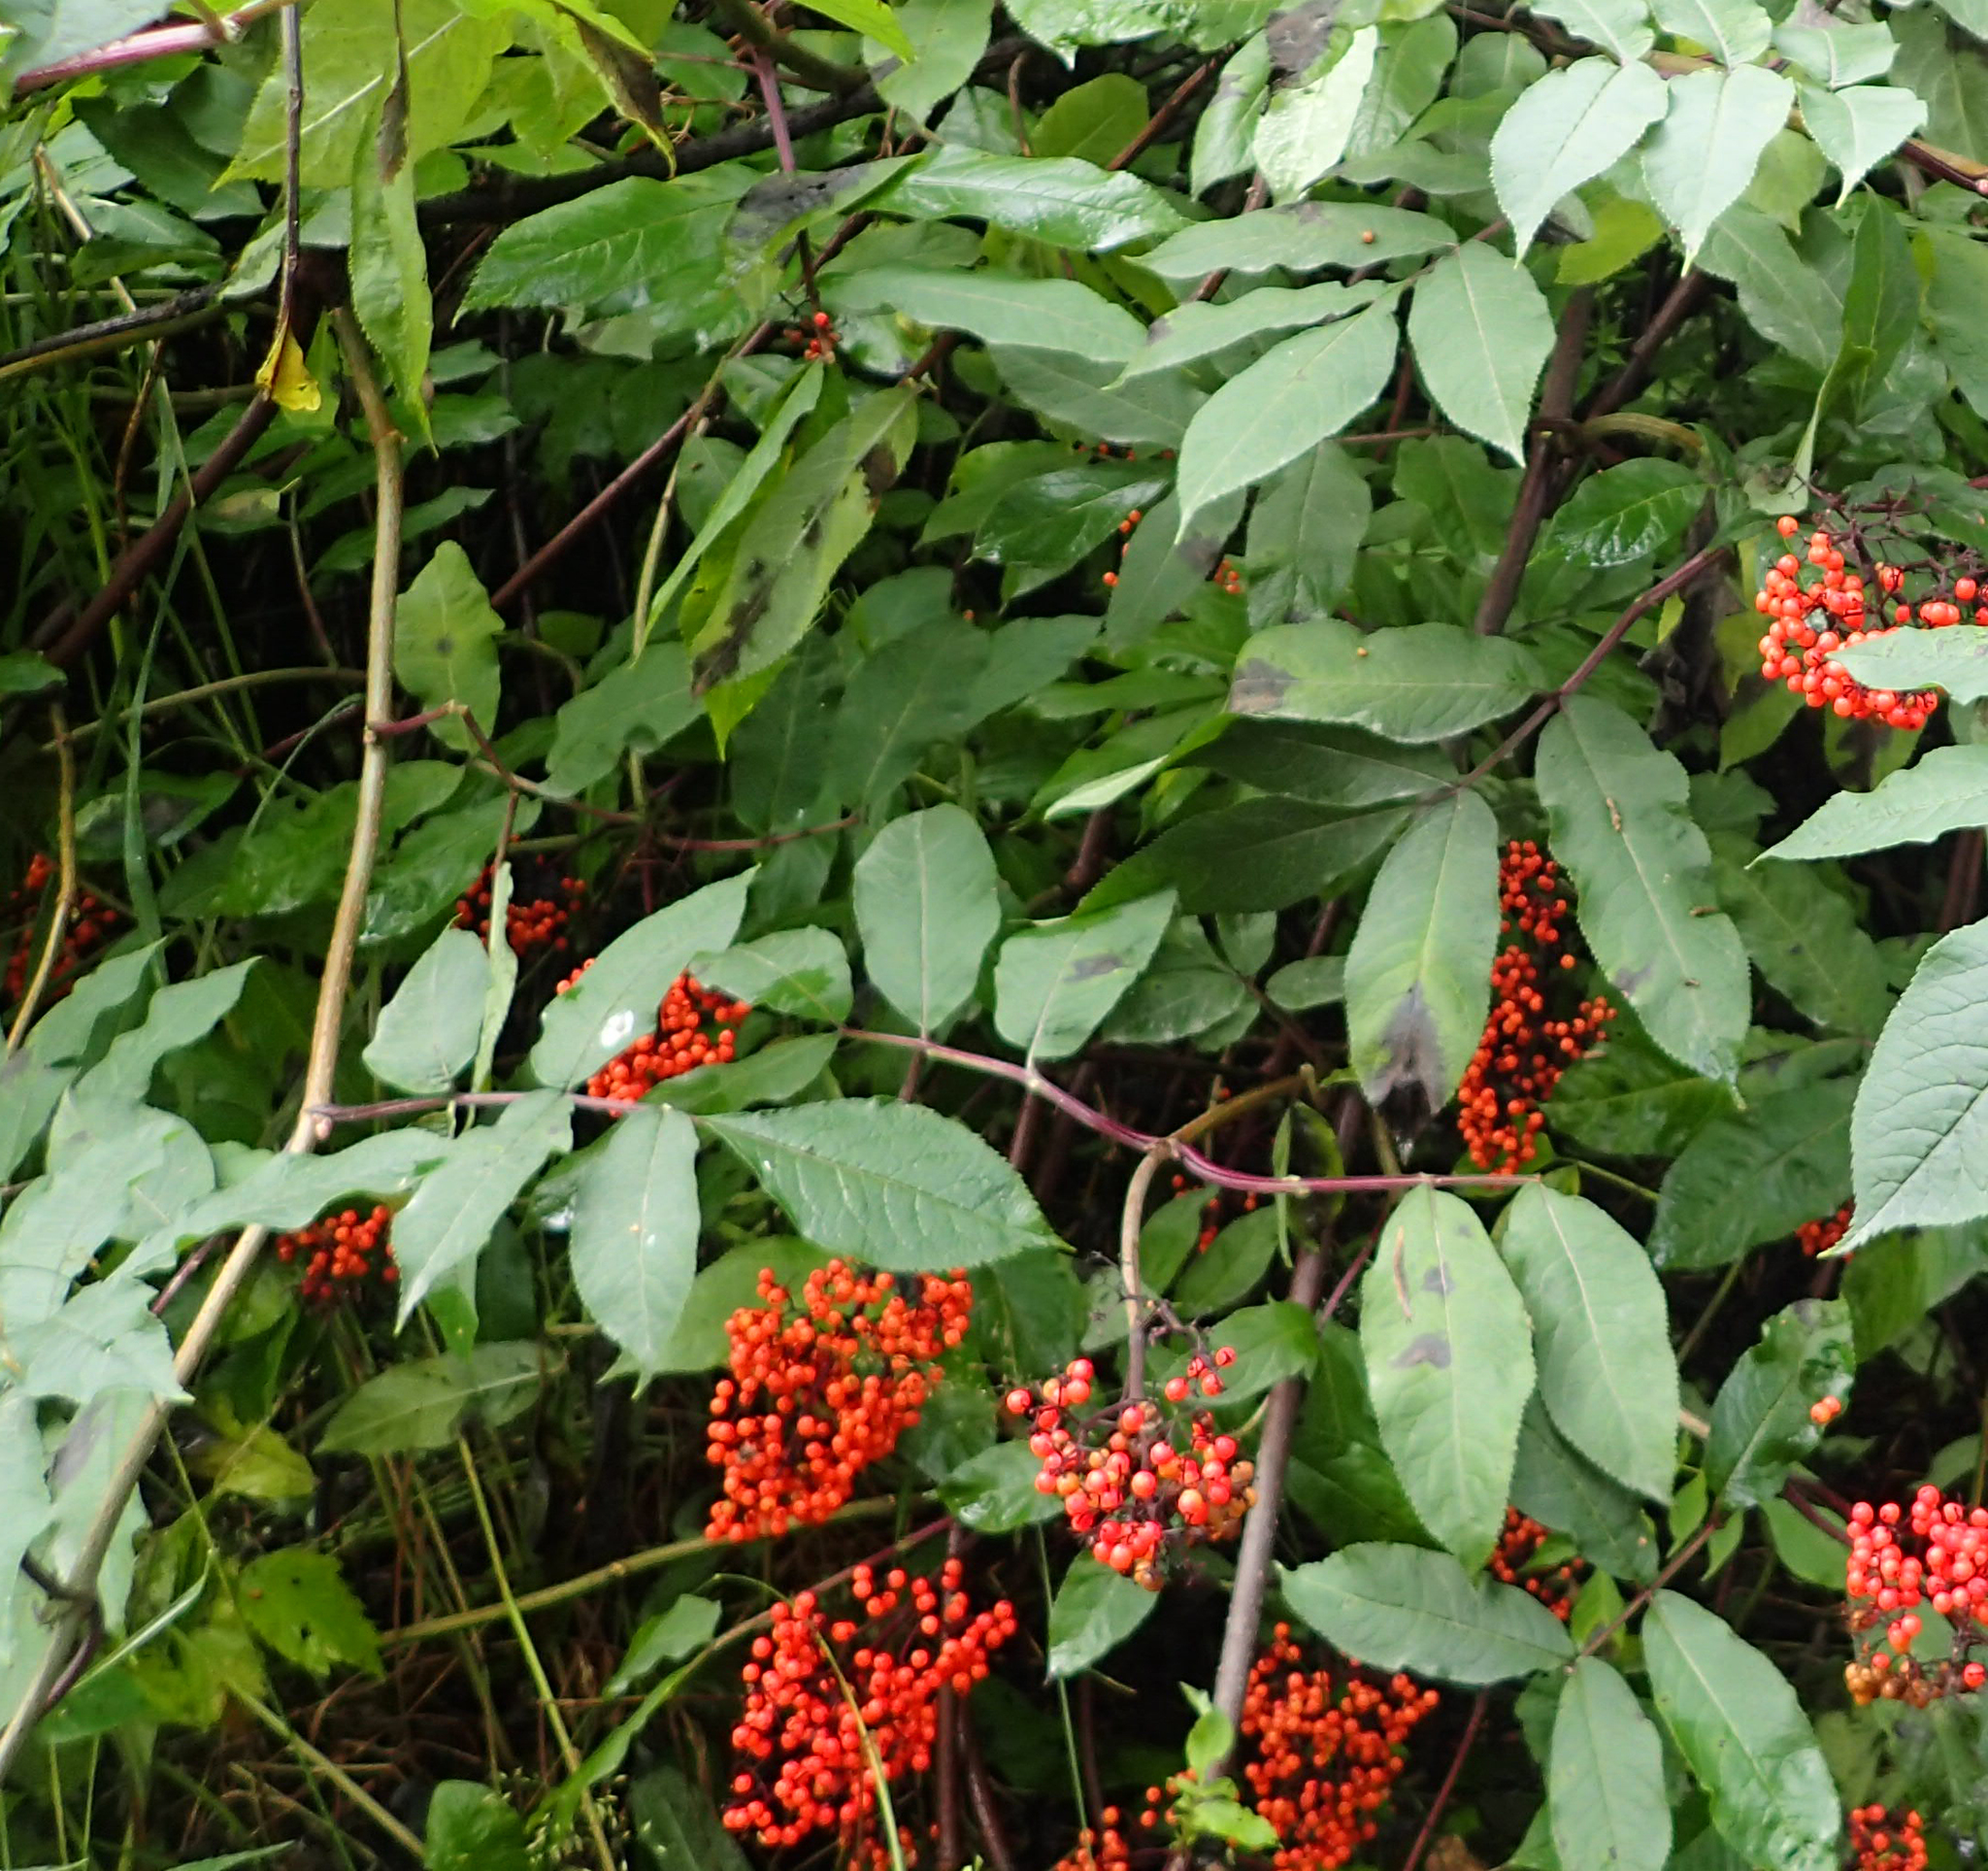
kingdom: Plantae
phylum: Tracheophyta
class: Magnoliopsida
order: Dipsacales
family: Viburnaceae
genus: Sambucus
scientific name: Sambucus racemosa
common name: Red-berried elder
